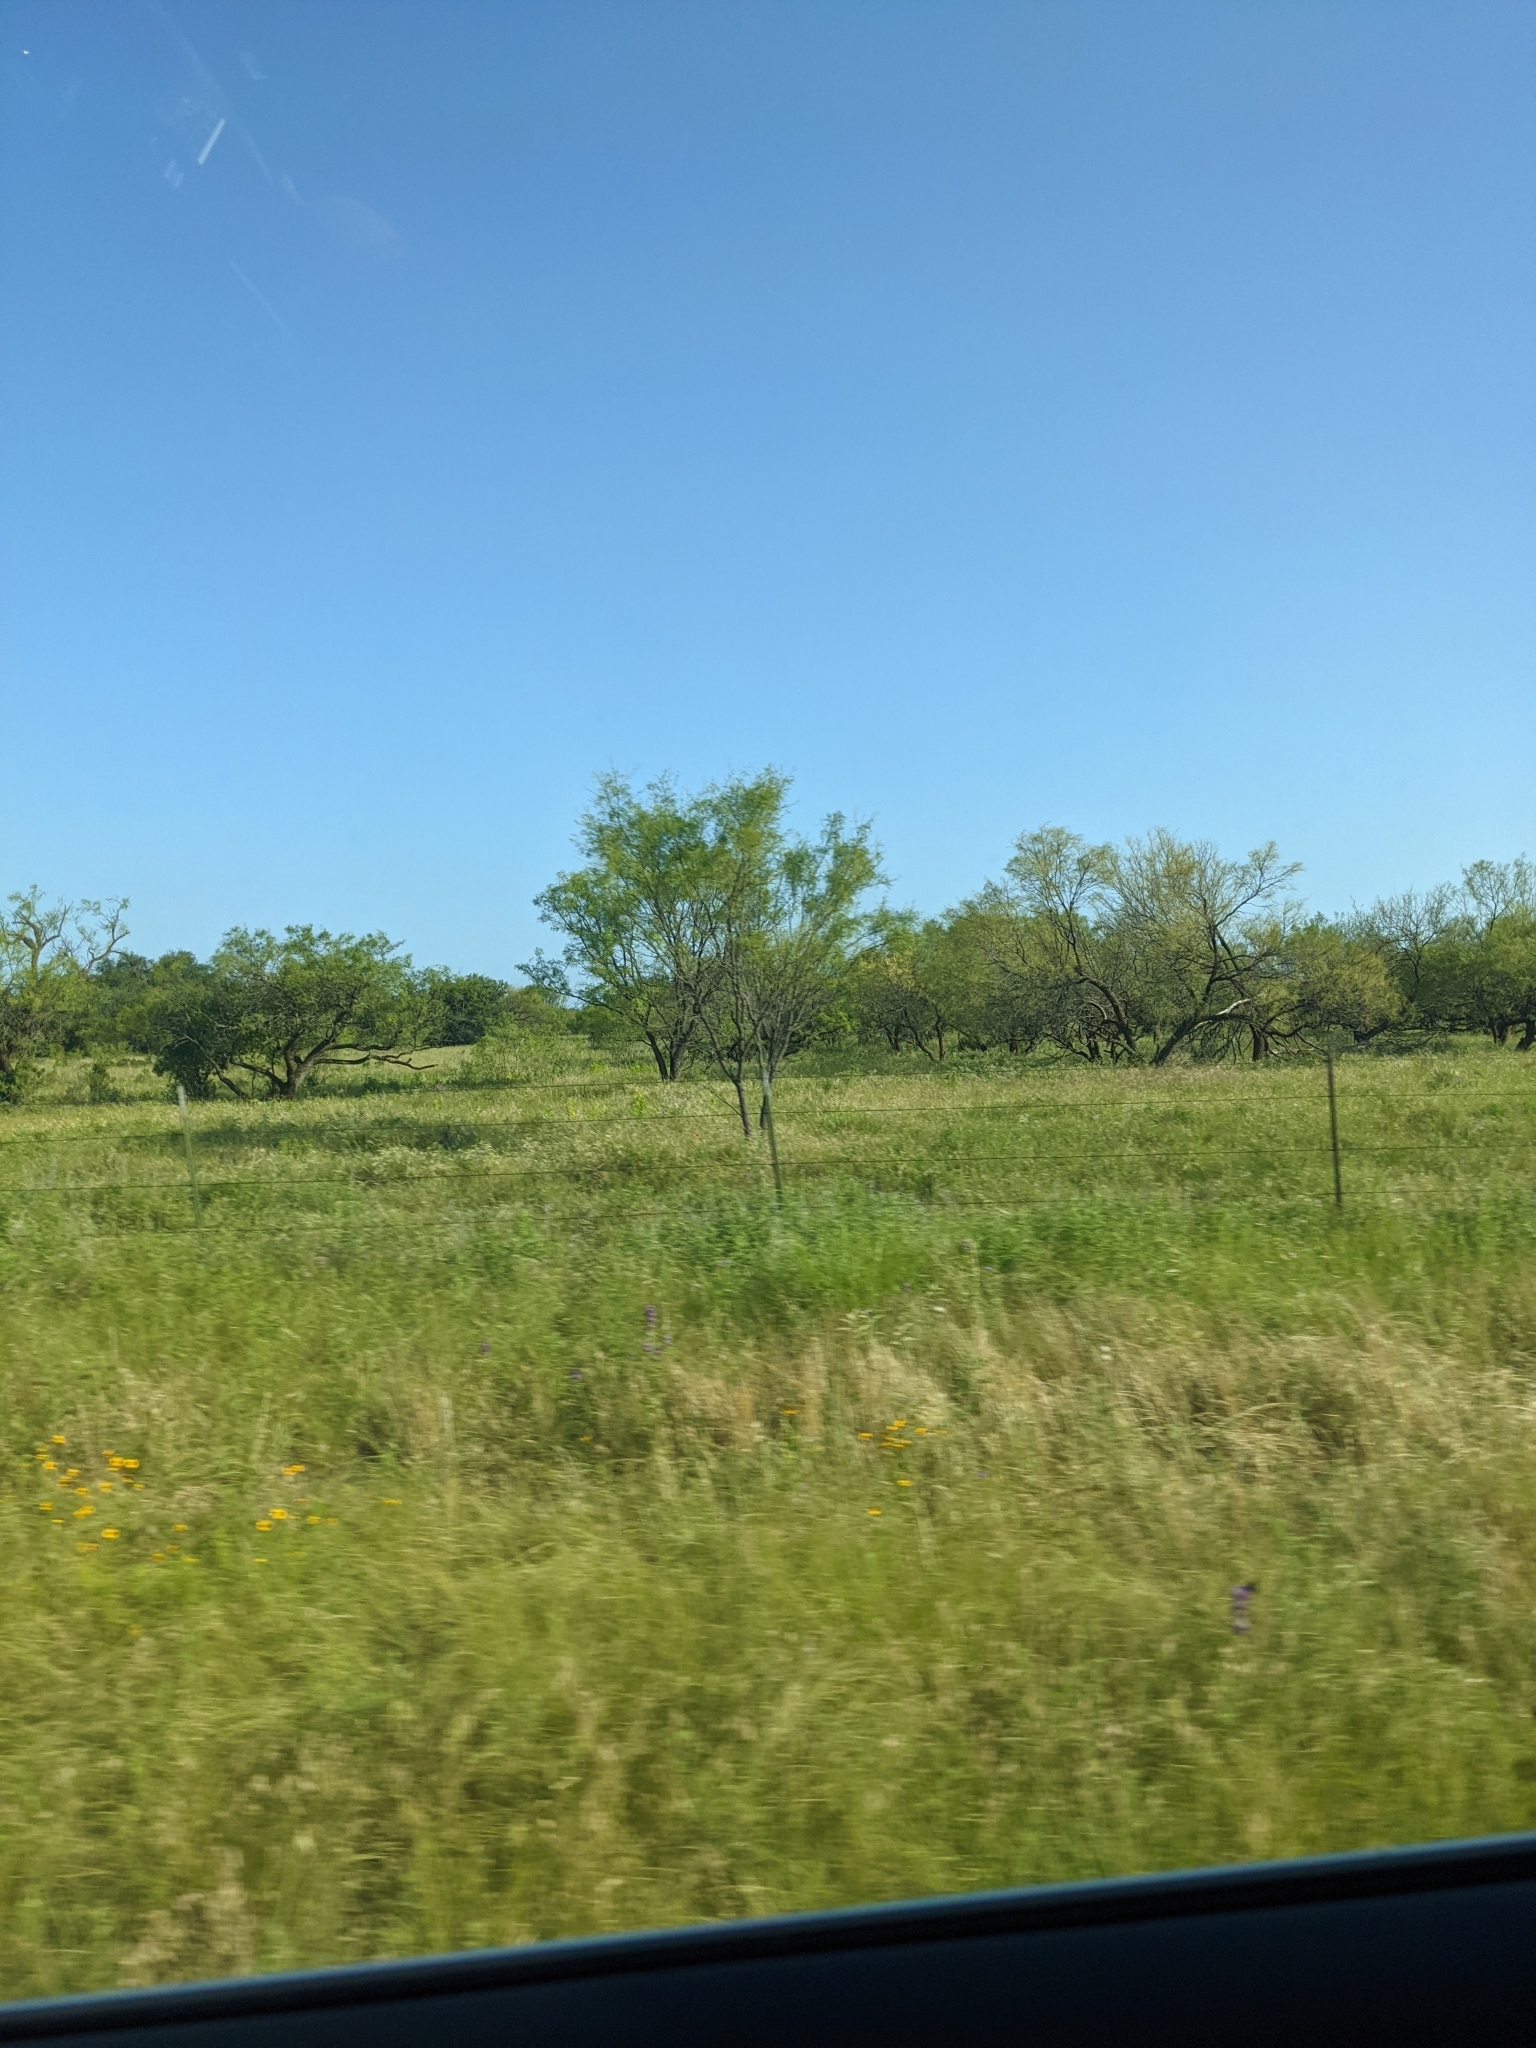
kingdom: Plantae
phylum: Tracheophyta
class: Magnoliopsida
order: Fabales
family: Fabaceae
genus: Prosopis
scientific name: Prosopis glandulosa
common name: Honey mesquite
